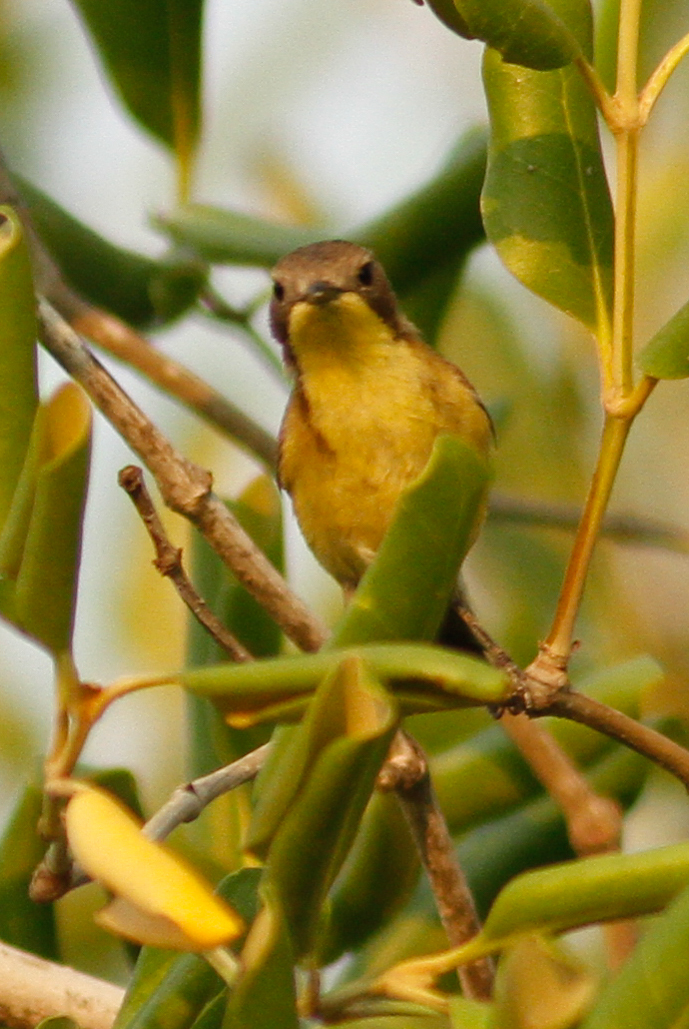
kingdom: Animalia
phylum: Chordata
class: Aves
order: Passeriformes
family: Acanthizidae
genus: Gerygone
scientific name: Gerygone sulphurea
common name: Golden-bellied gerygone
